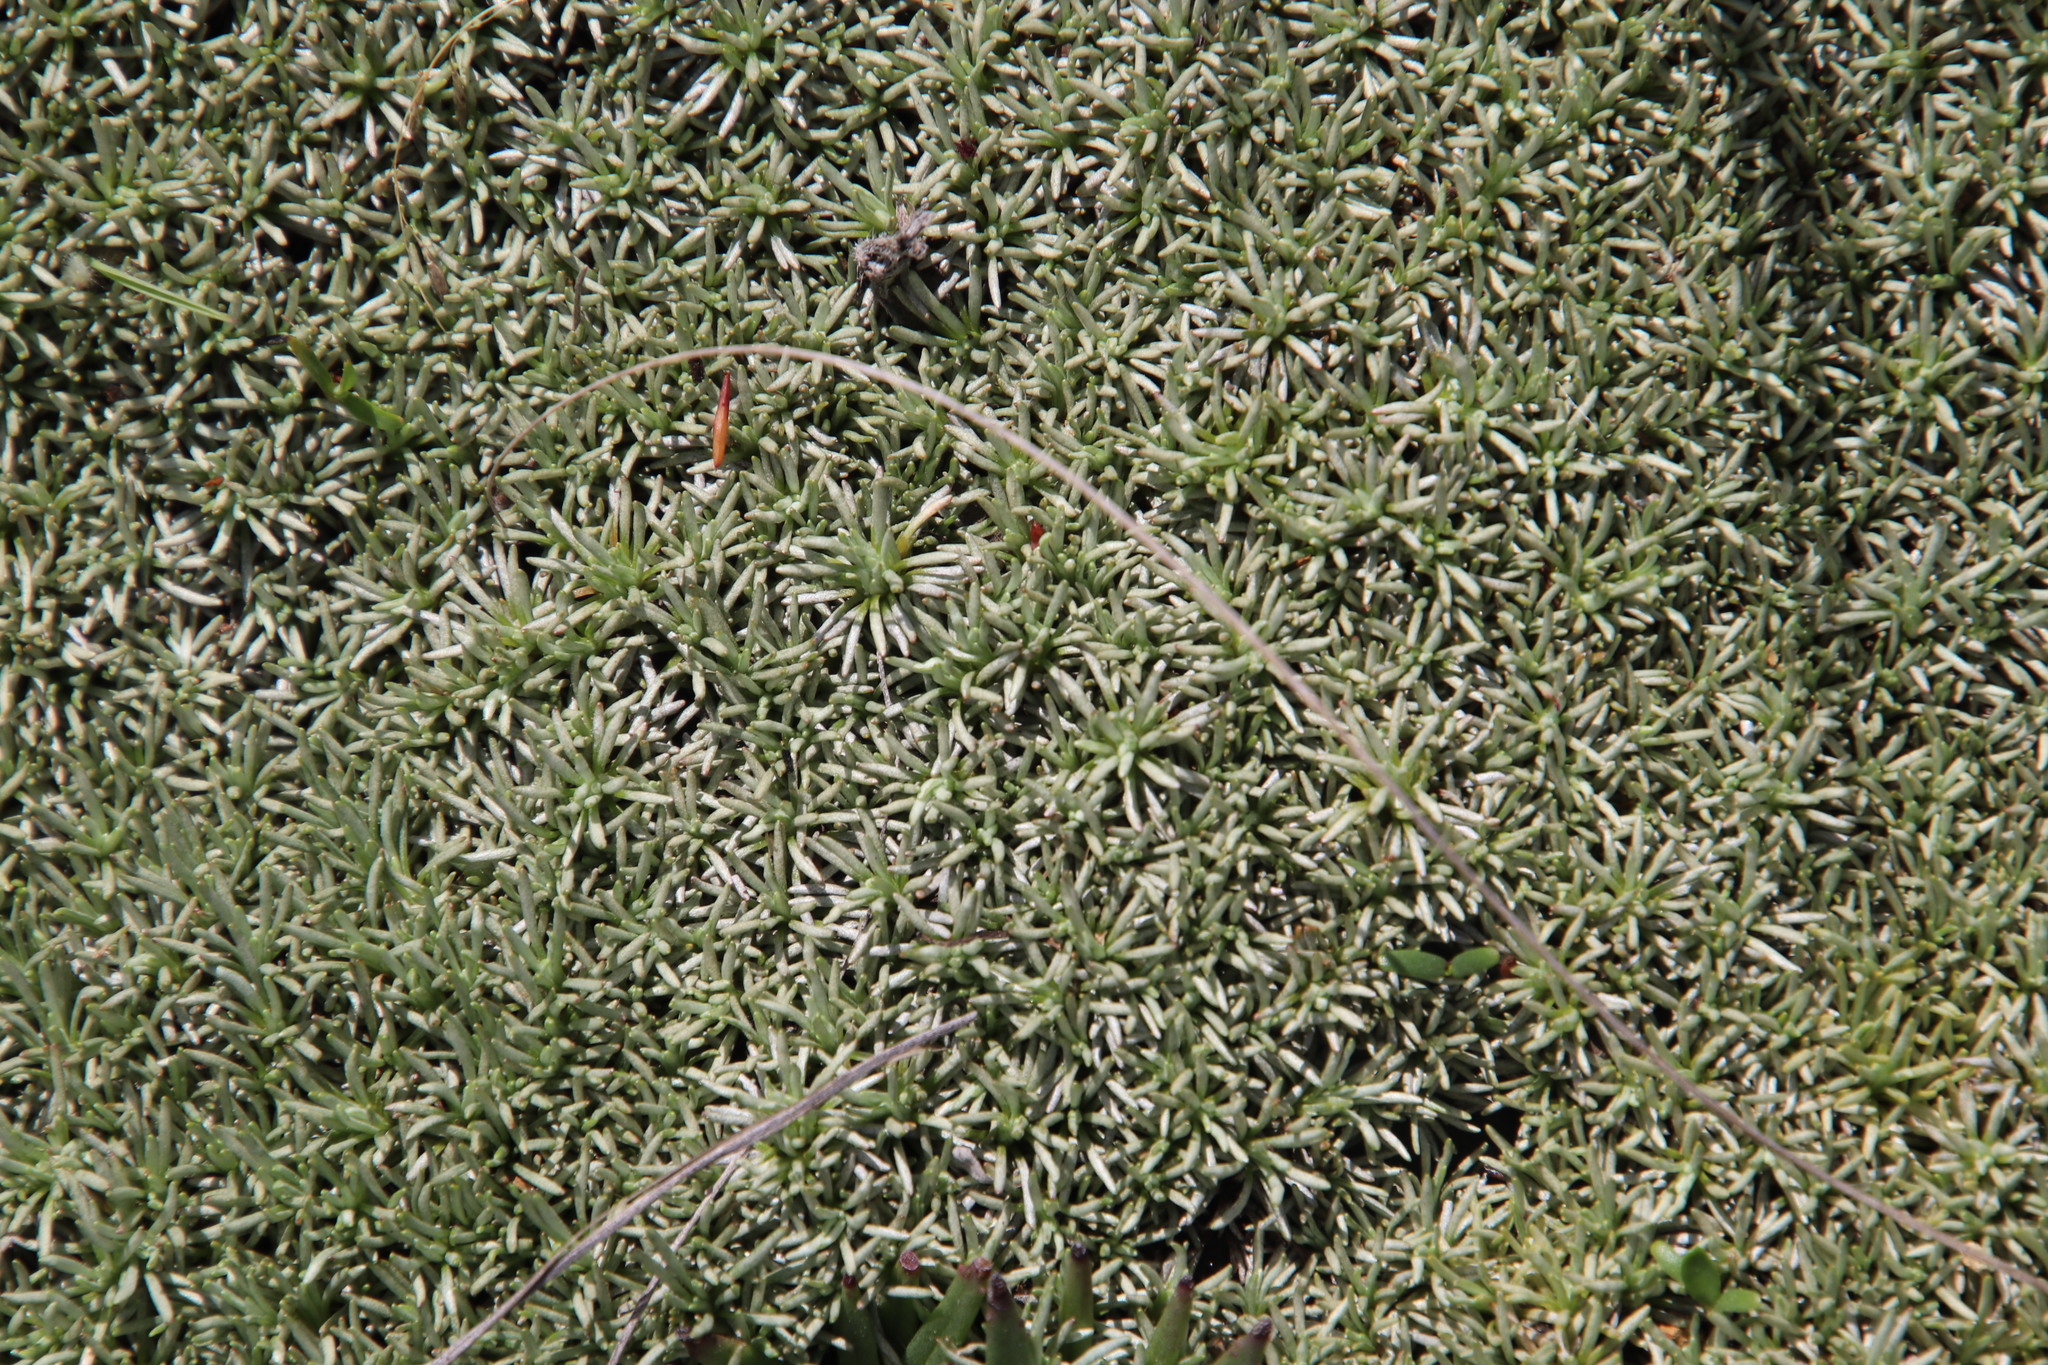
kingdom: Plantae
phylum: Tracheophyta
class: Magnoliopsida
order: Asterales
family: Asteraceae
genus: Helichrysum
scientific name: Helichrysum caespititium
